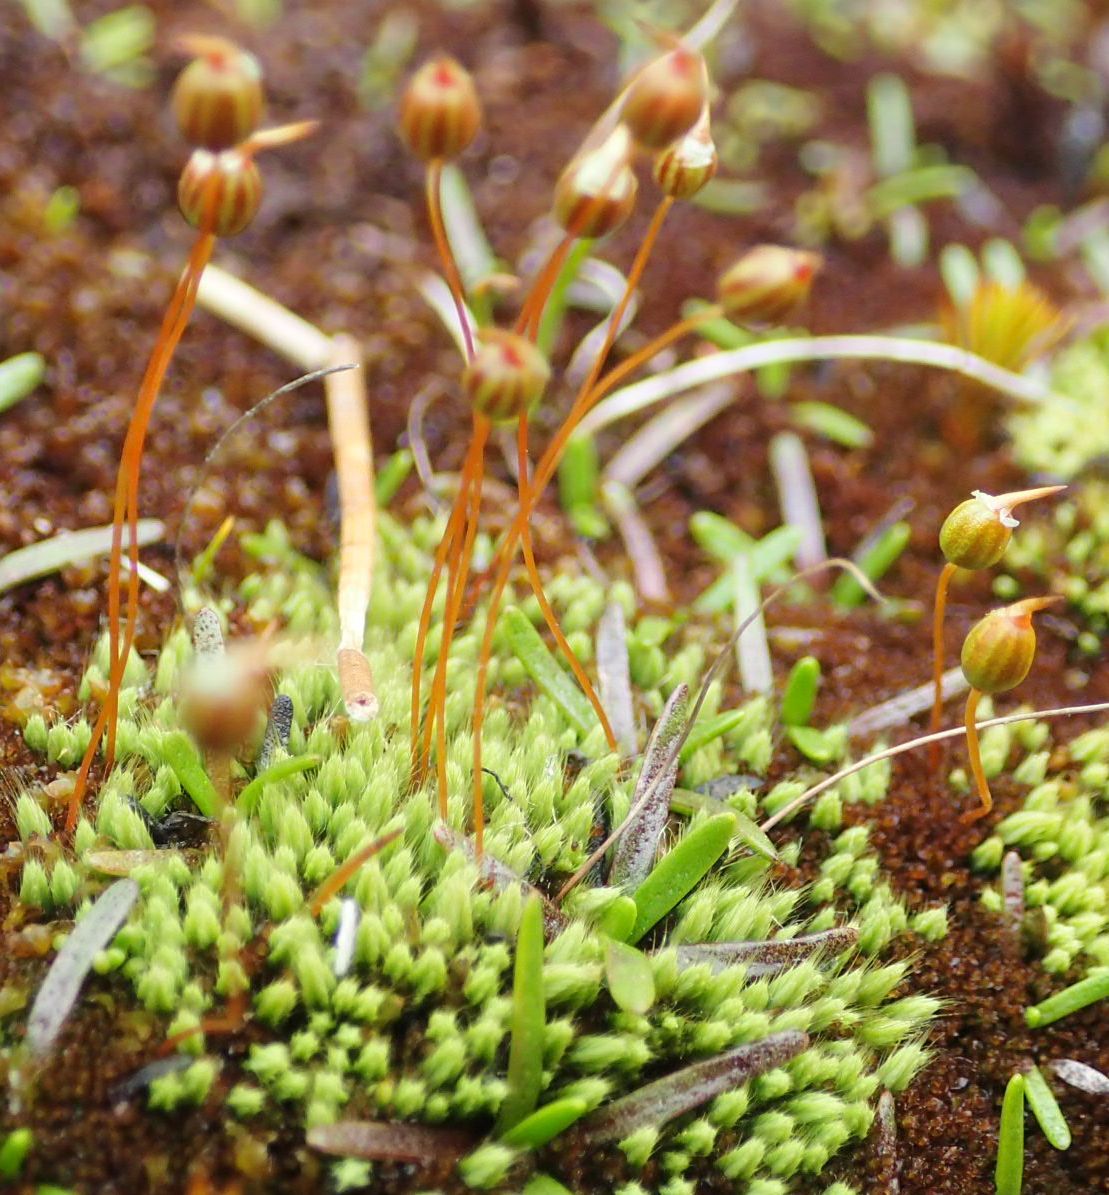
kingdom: Plantae
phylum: Bryophyta
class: Bryopsida
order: Bartramiales
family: Bartramiaceae
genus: Conostomum
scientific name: Conostomum pentastichum
